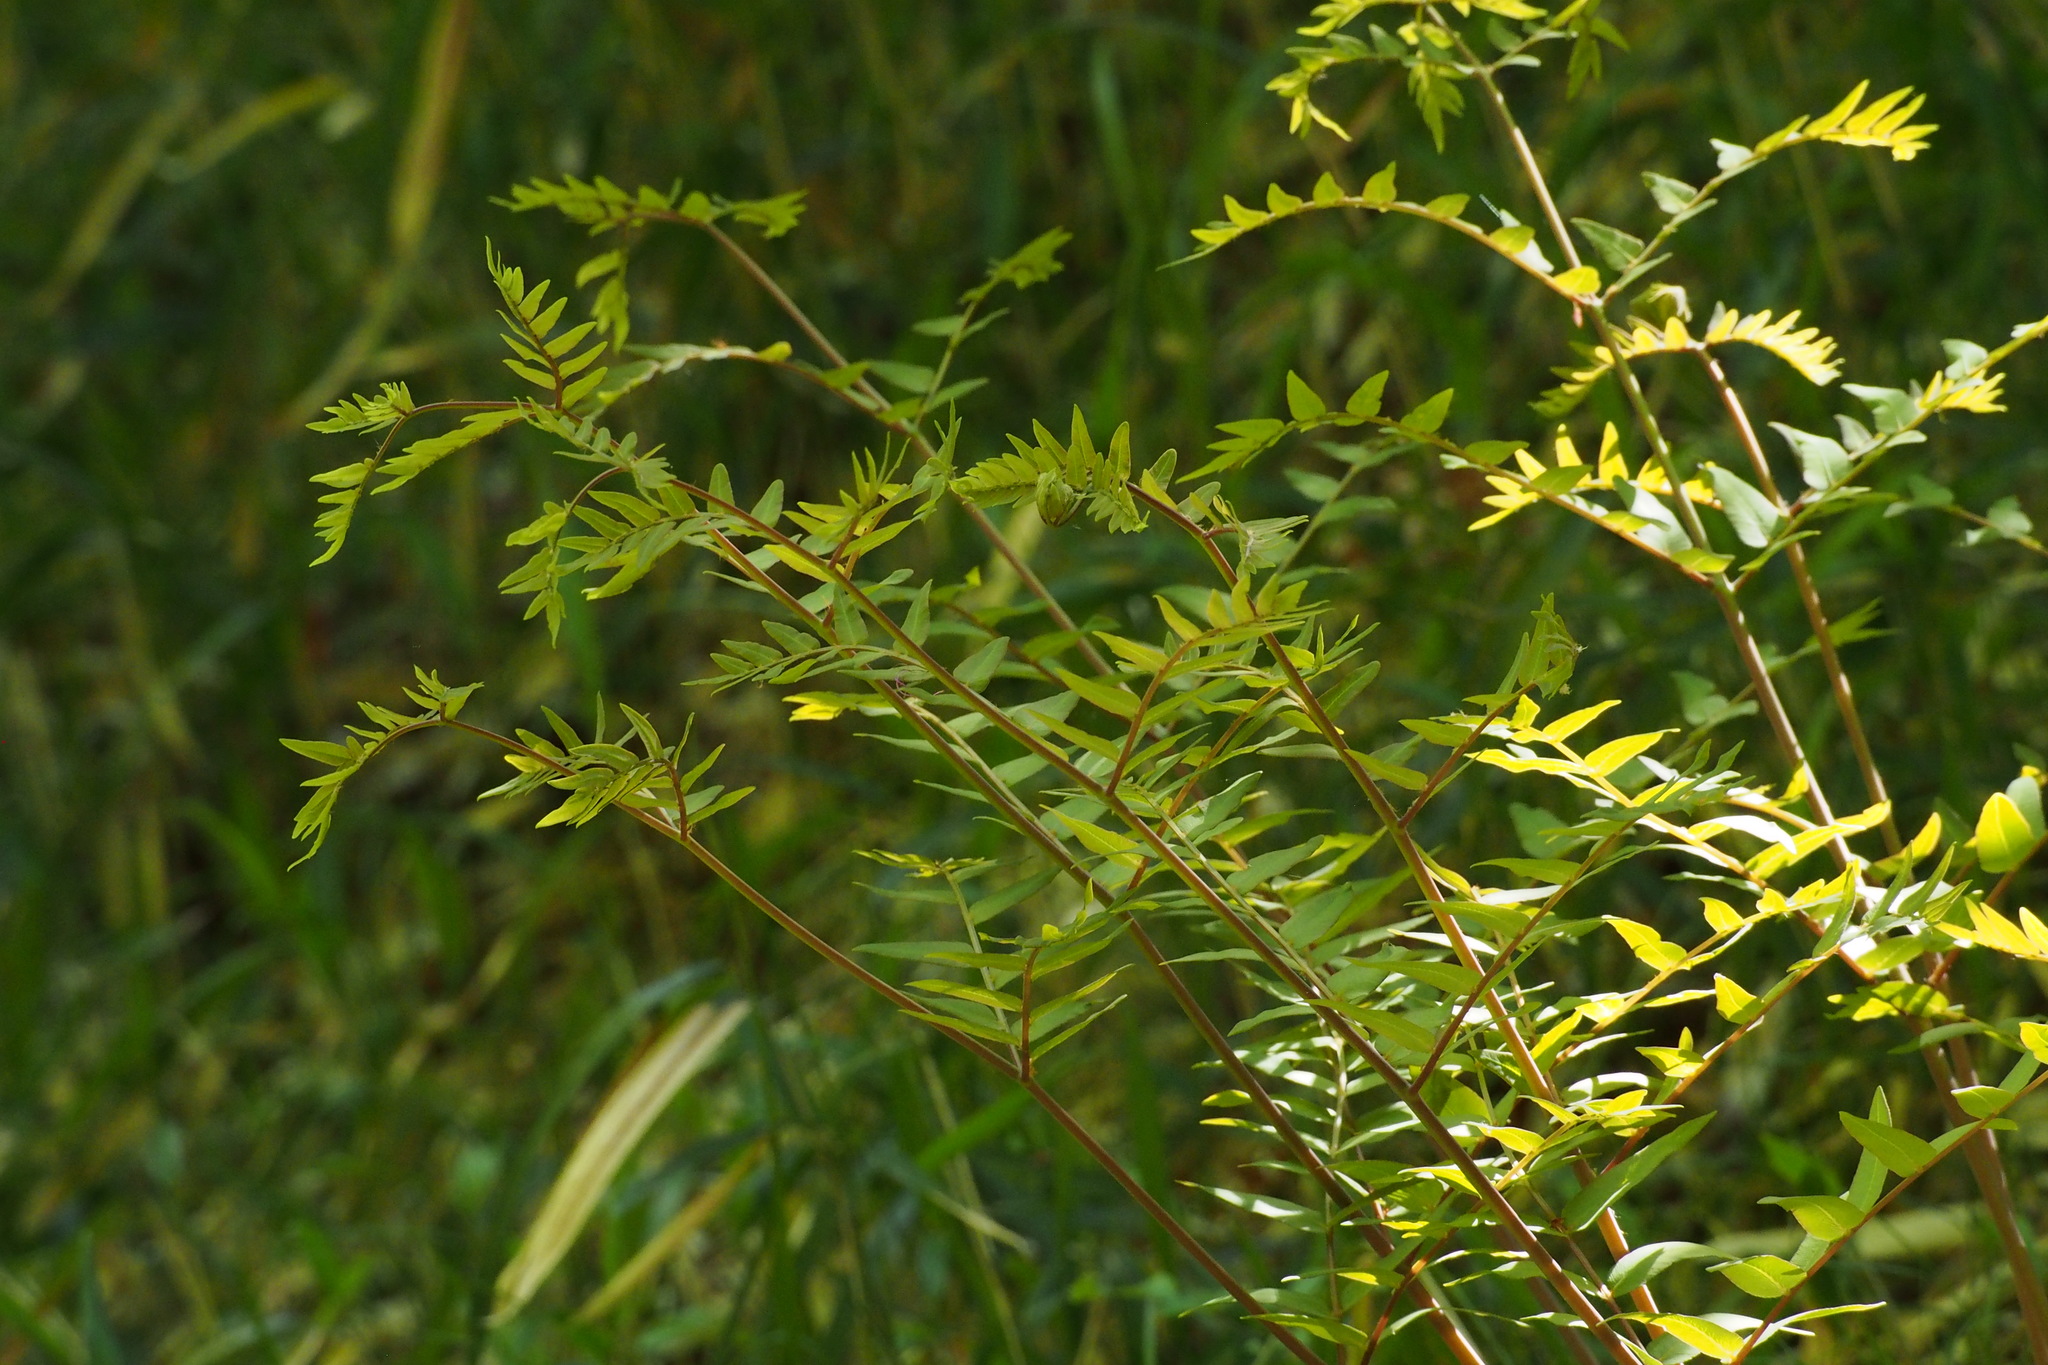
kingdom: Plantae
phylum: Tracheophyta
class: Polypodiopsida
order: Osmundales
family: Osmundaceae
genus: Osmunda
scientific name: Osmunda japonica
